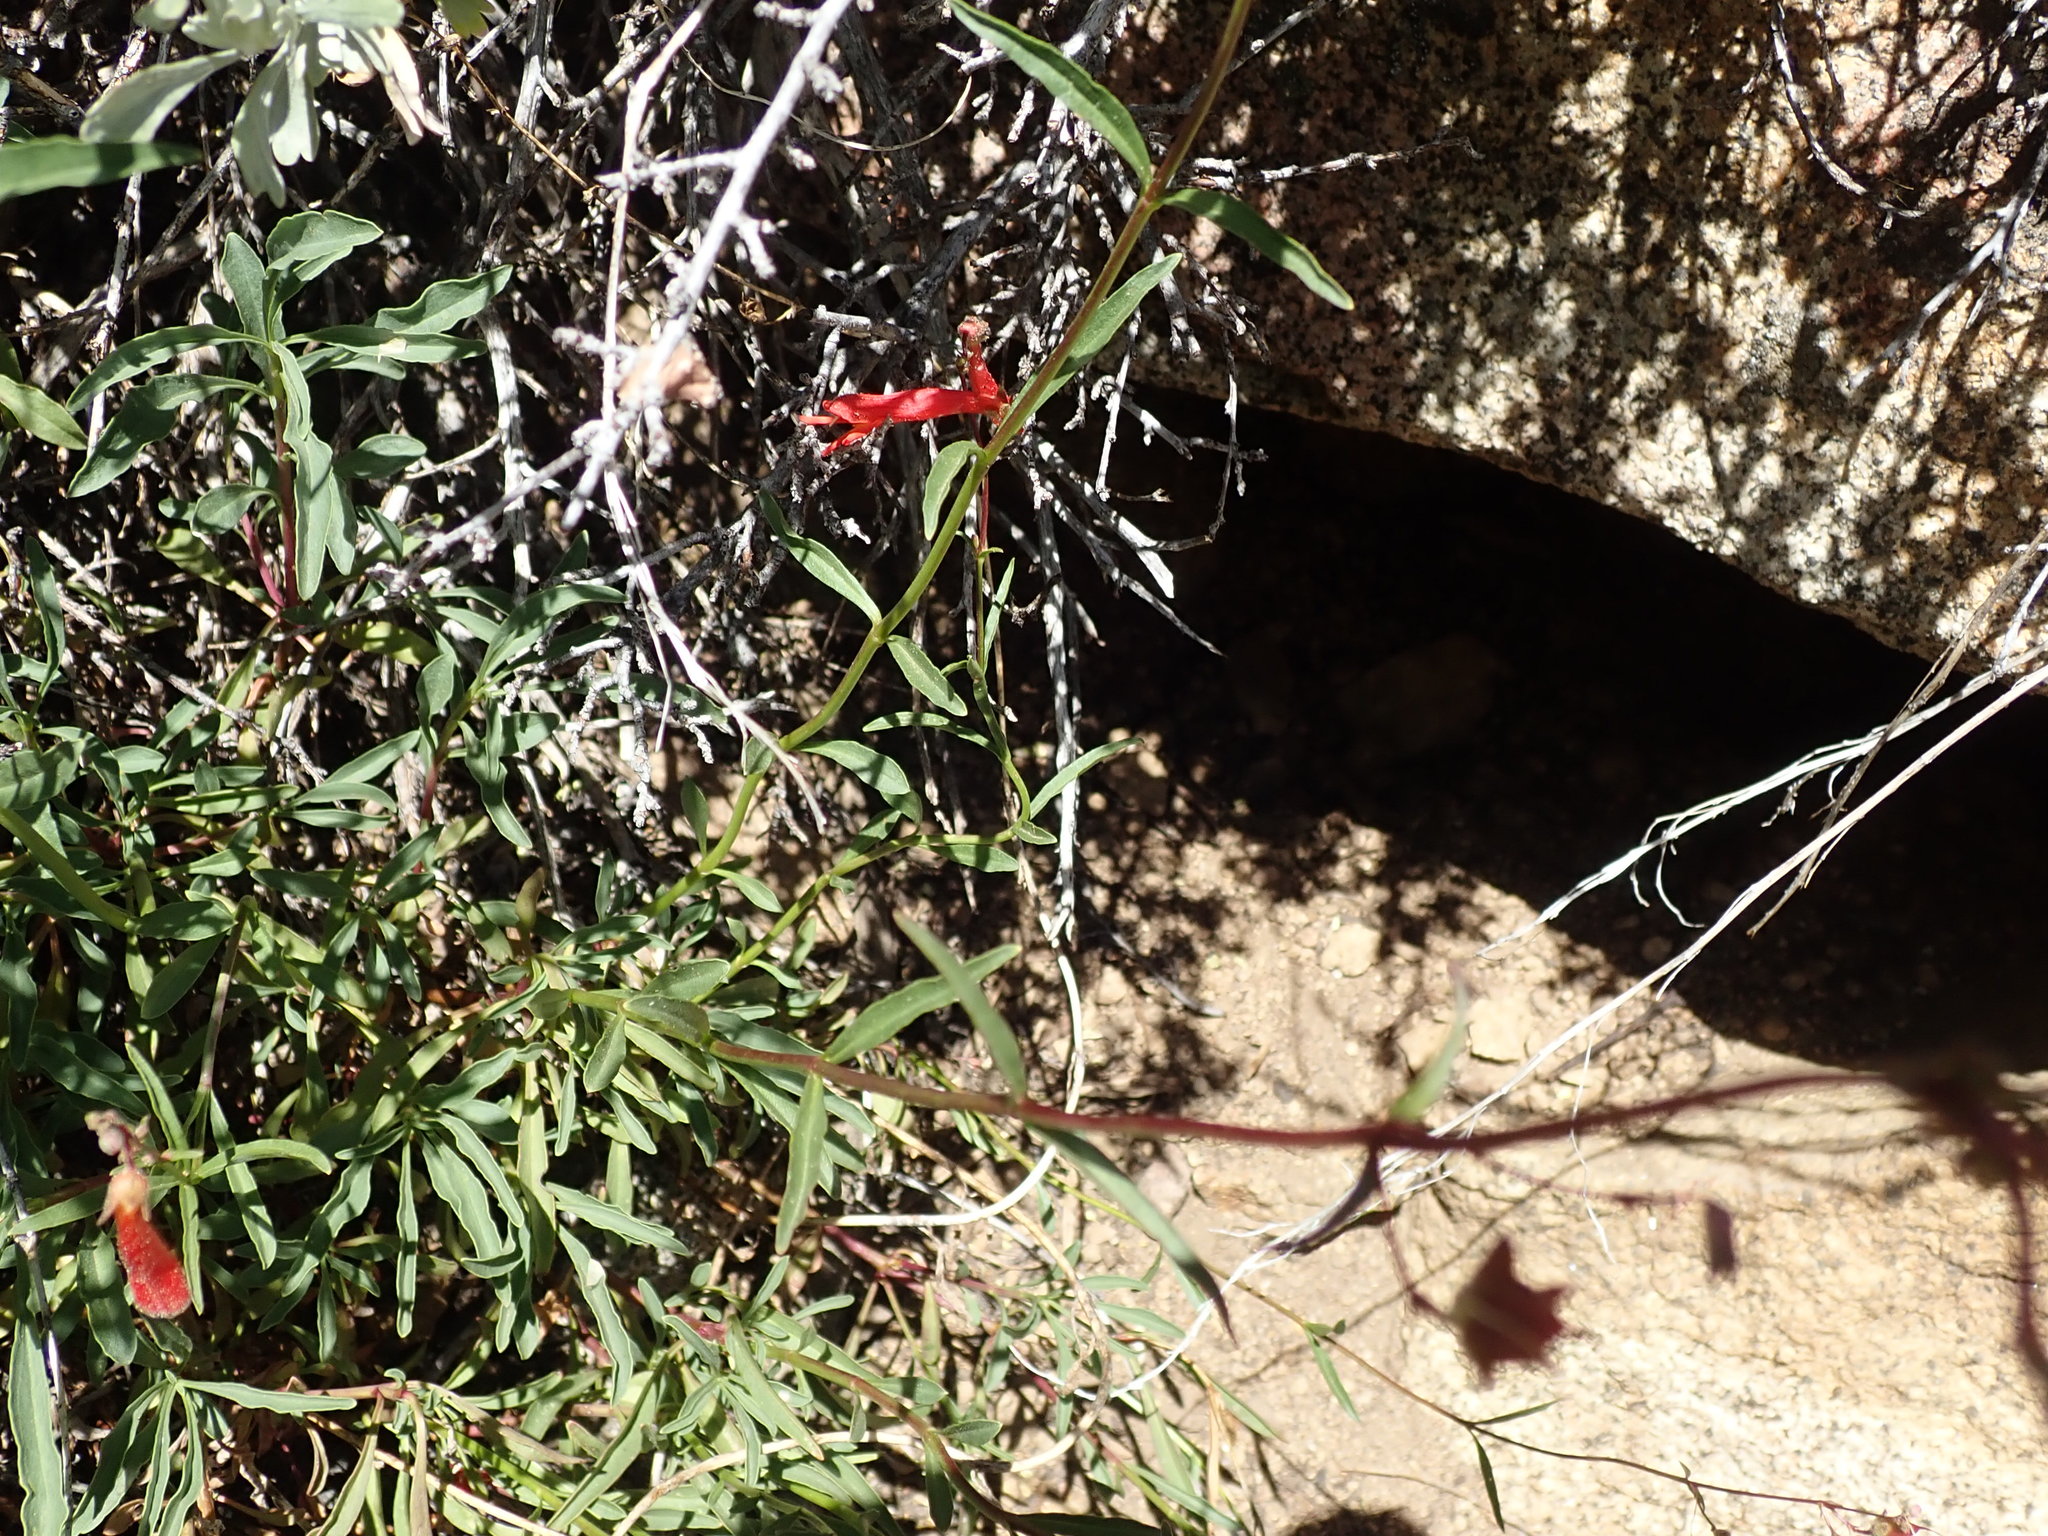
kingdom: Plantae
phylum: Tracheophyta
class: Magnoliopsida
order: Lamiales
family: Plantaginaceae
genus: Penstemon
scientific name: Penstemon rostriflorus
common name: Bridges's penstemon
